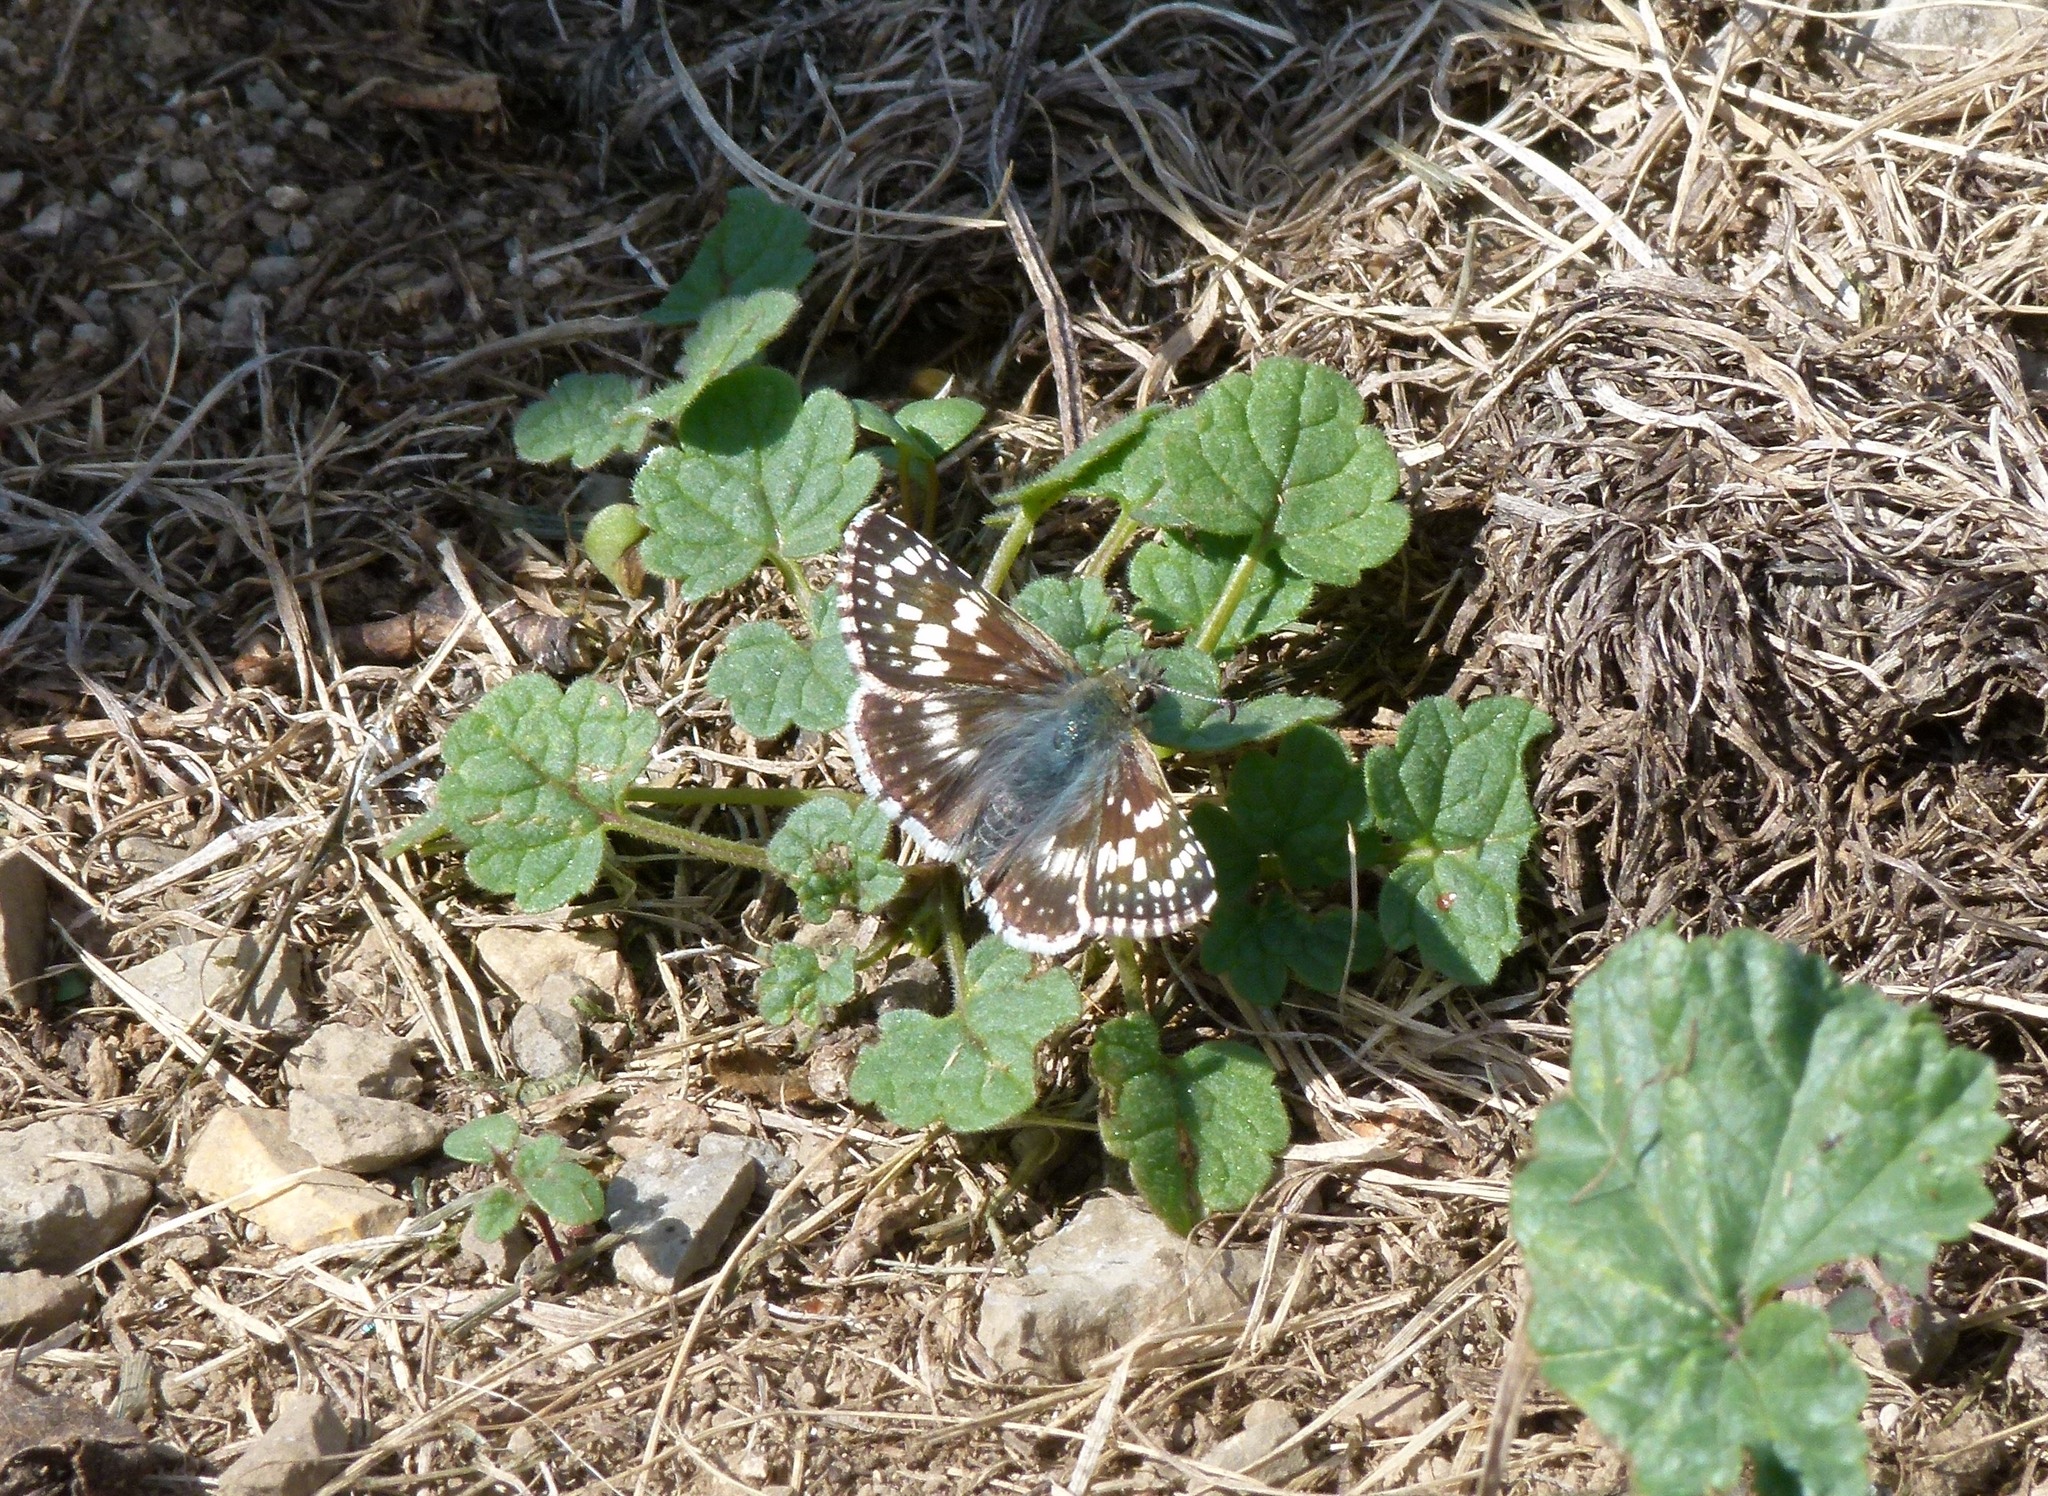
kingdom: Animalia
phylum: Arthropoda
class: Insecta
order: Lepidoptera
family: Hesperiidae
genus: Burnsius
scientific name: Burnsius communis
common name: Common checkered-skipper
